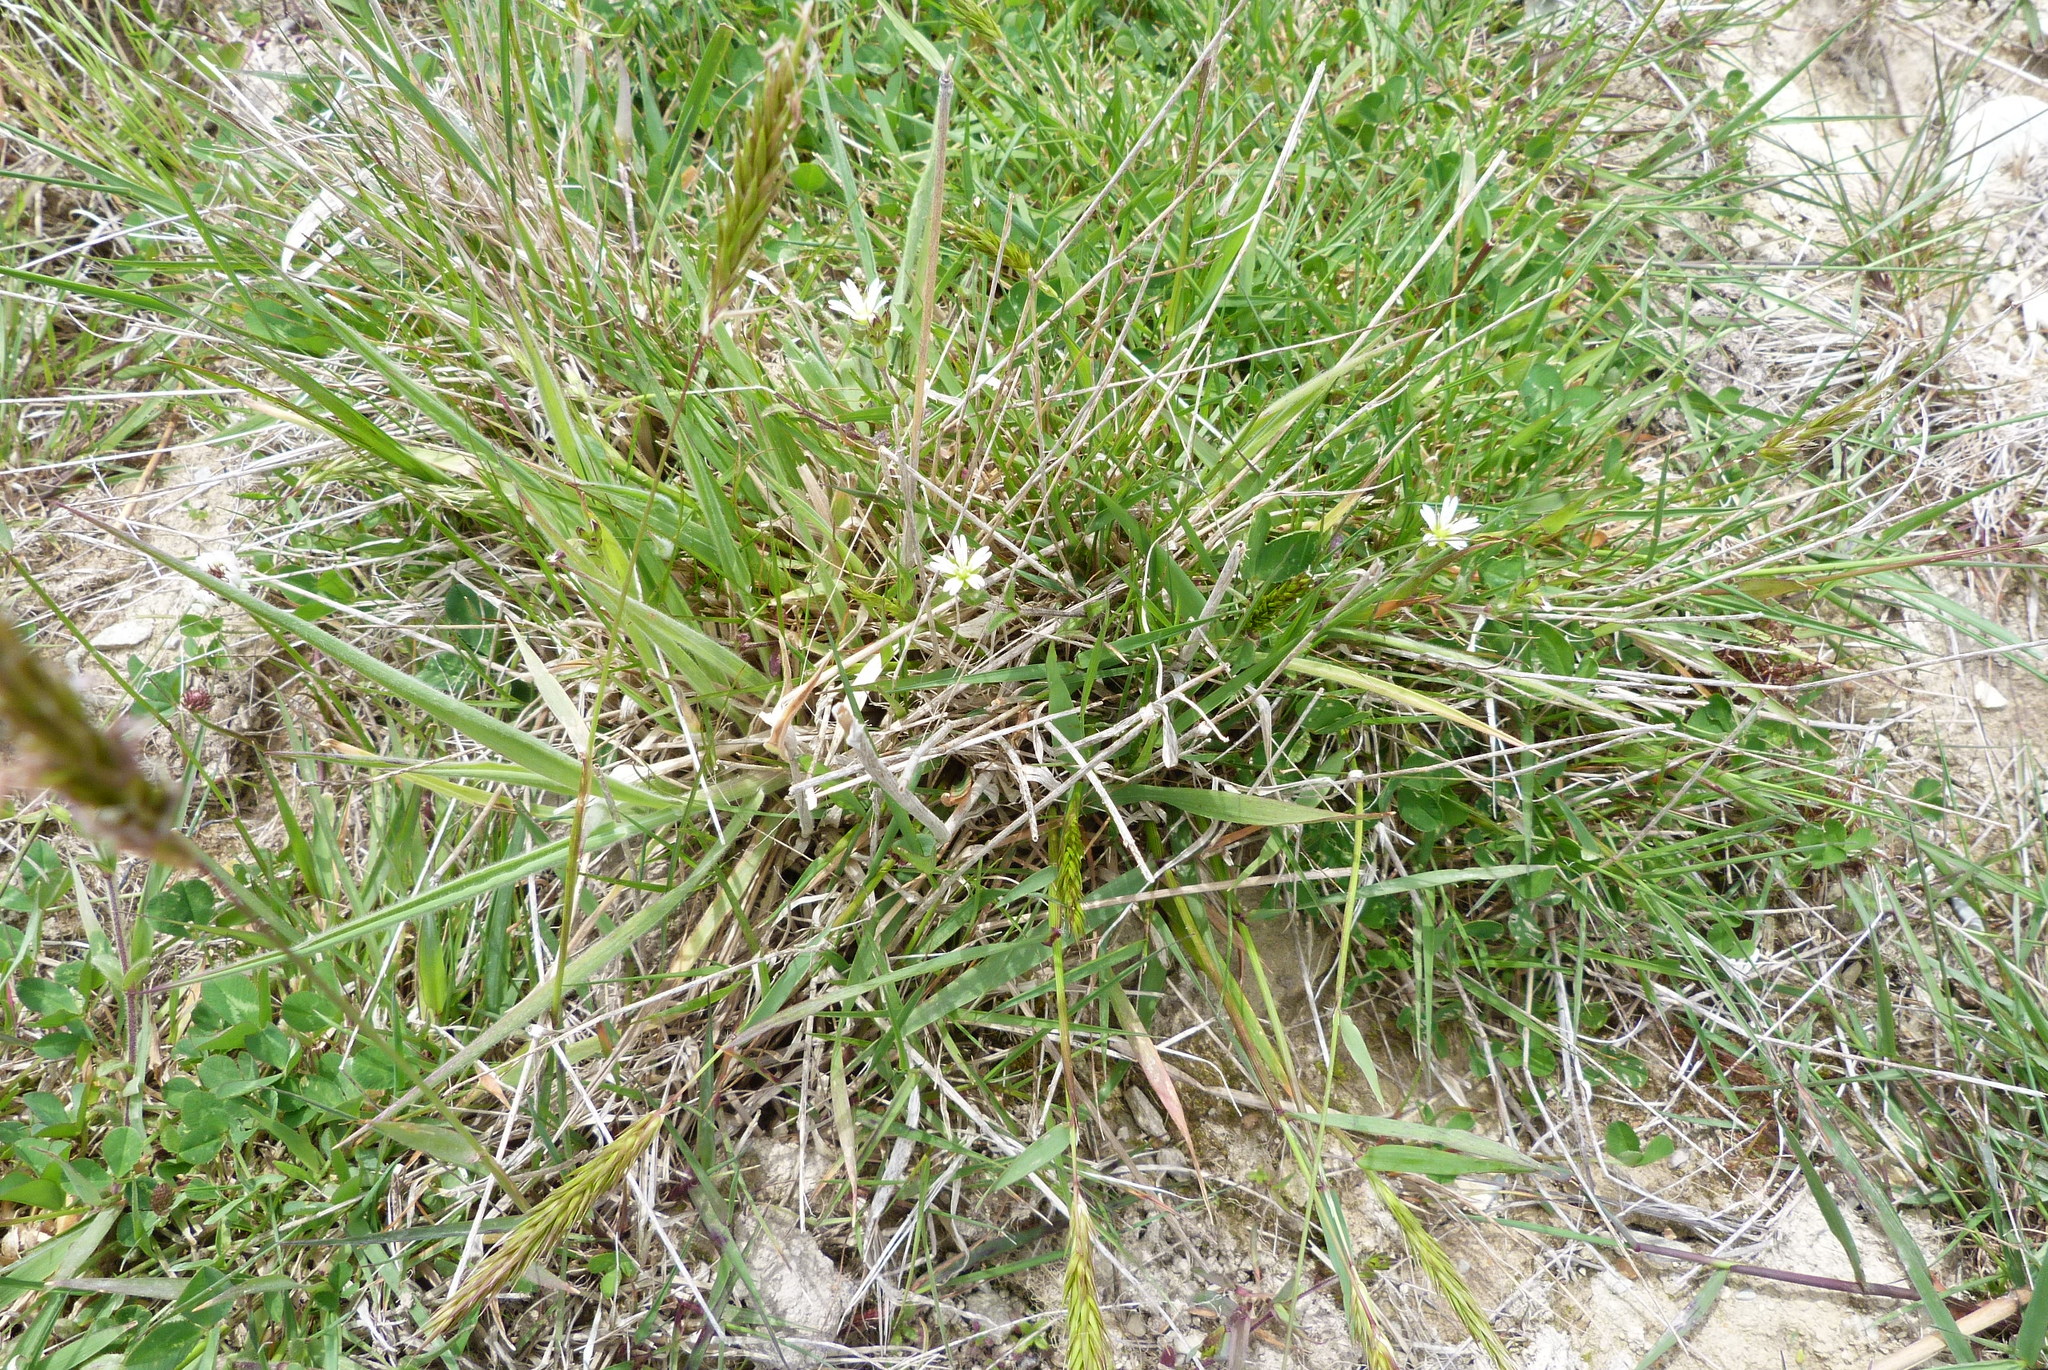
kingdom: Plantae
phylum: Tracheophyta
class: Liliopsida
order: Poales
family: Poaceae
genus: Anthoxanthum
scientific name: Anthoxanthum odoratum
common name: Sweet vernalgrass
